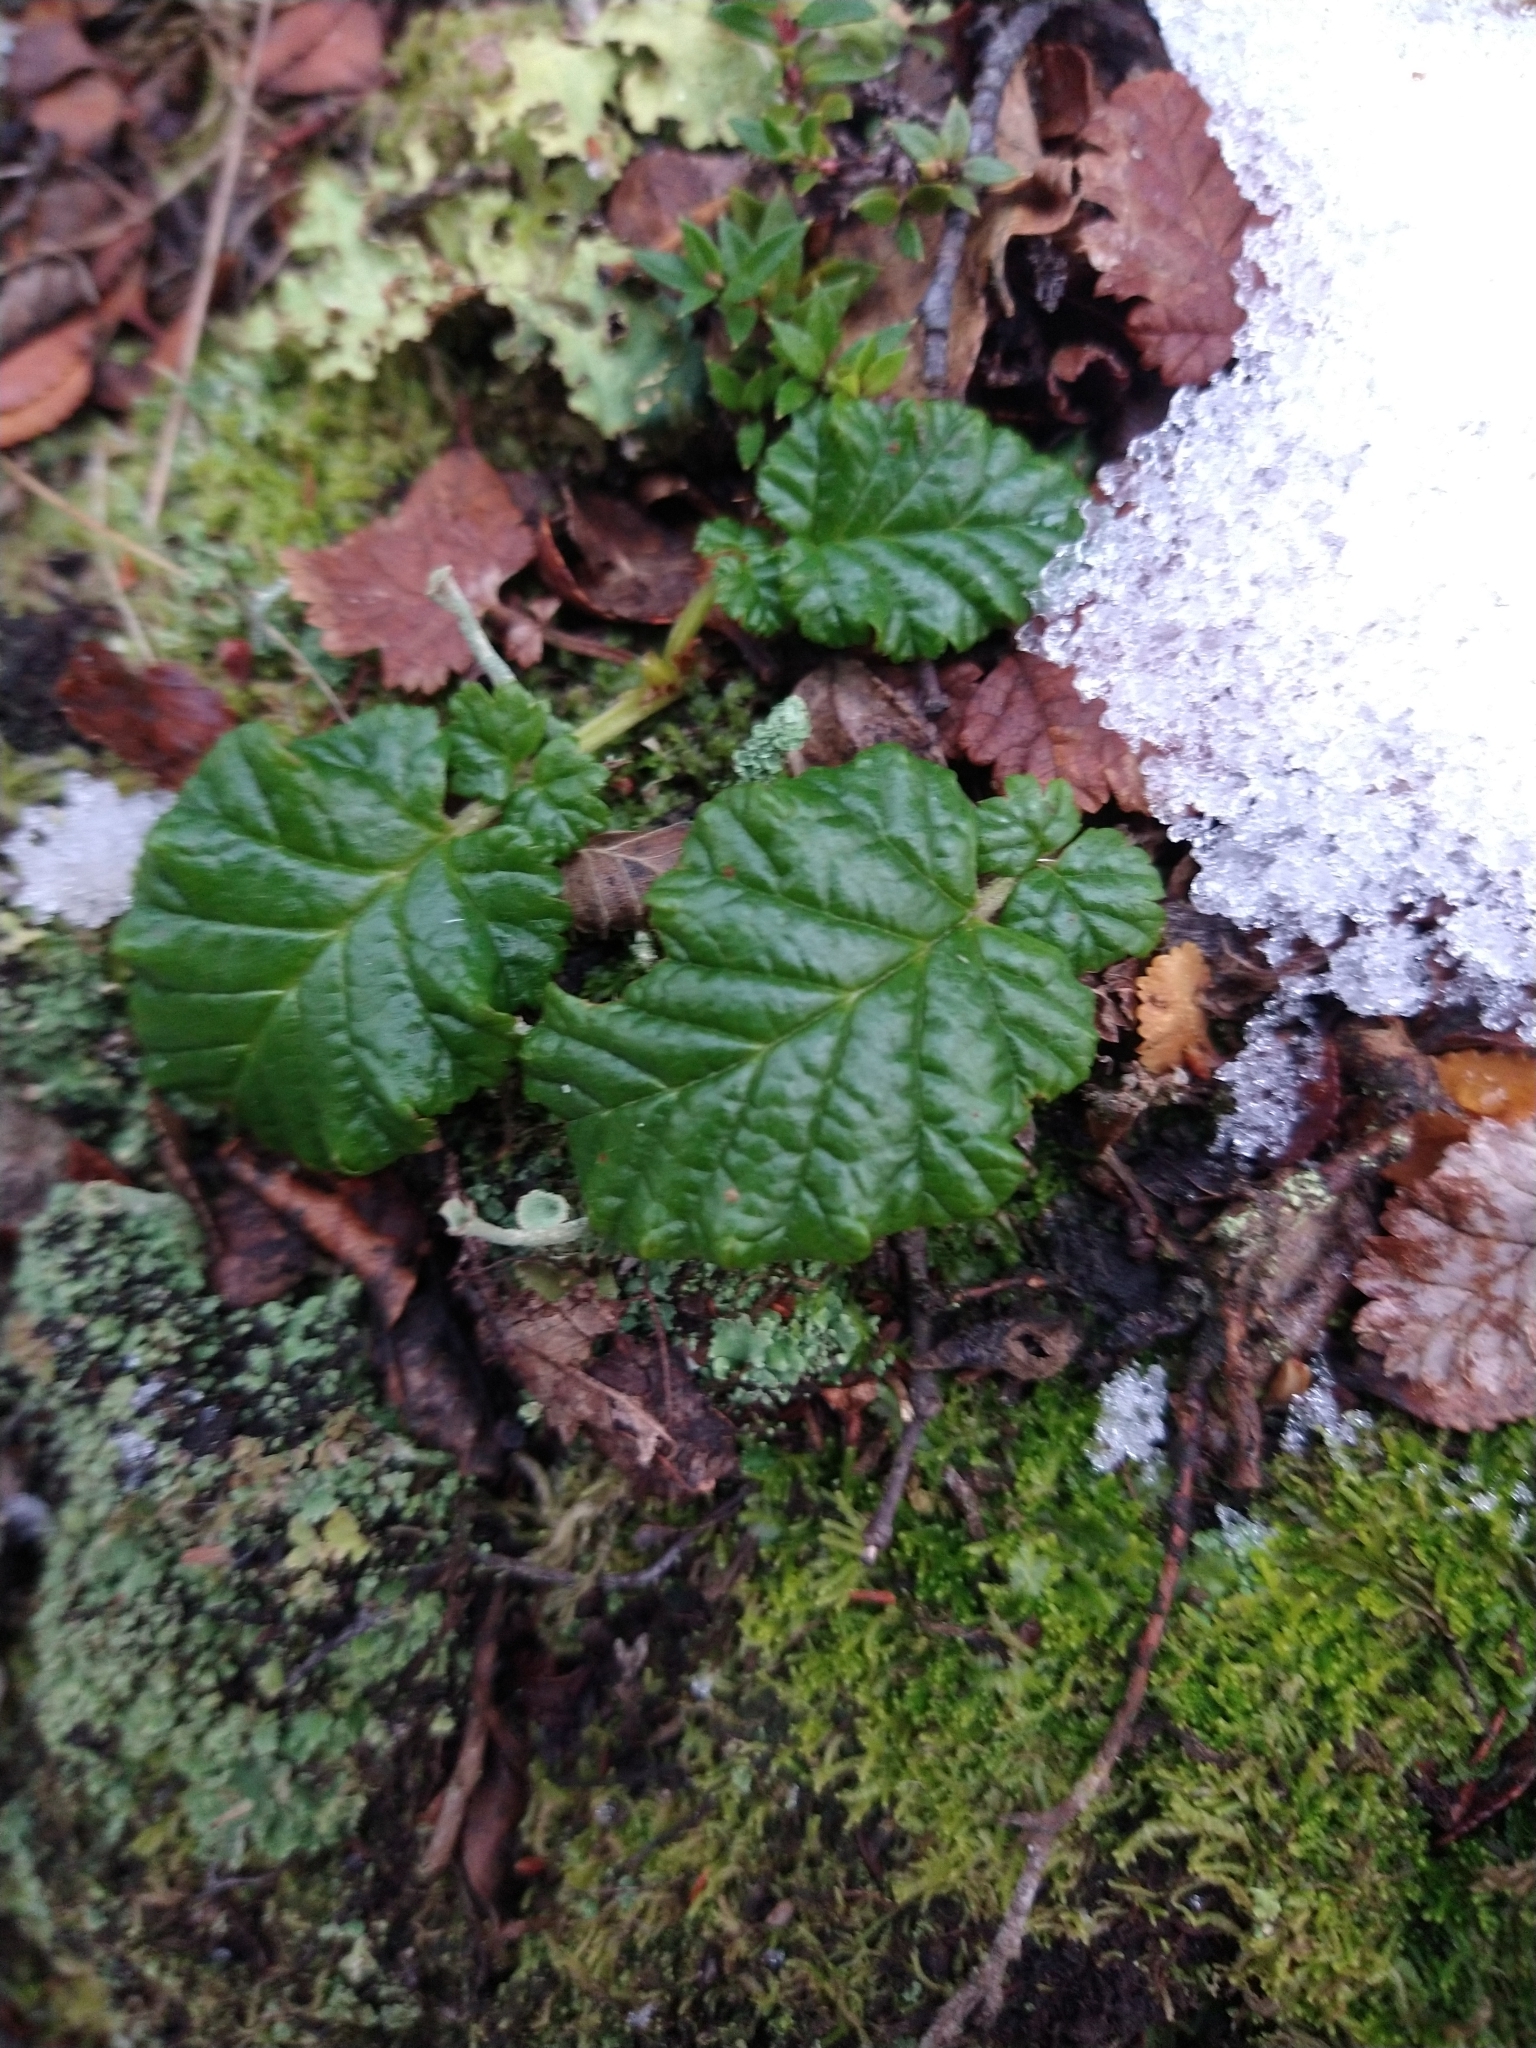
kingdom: Plantae
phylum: Tracheophyta
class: Magnoliopsida
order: Rosales
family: Rosaceae
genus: Rubus
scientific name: Rubus geoides
